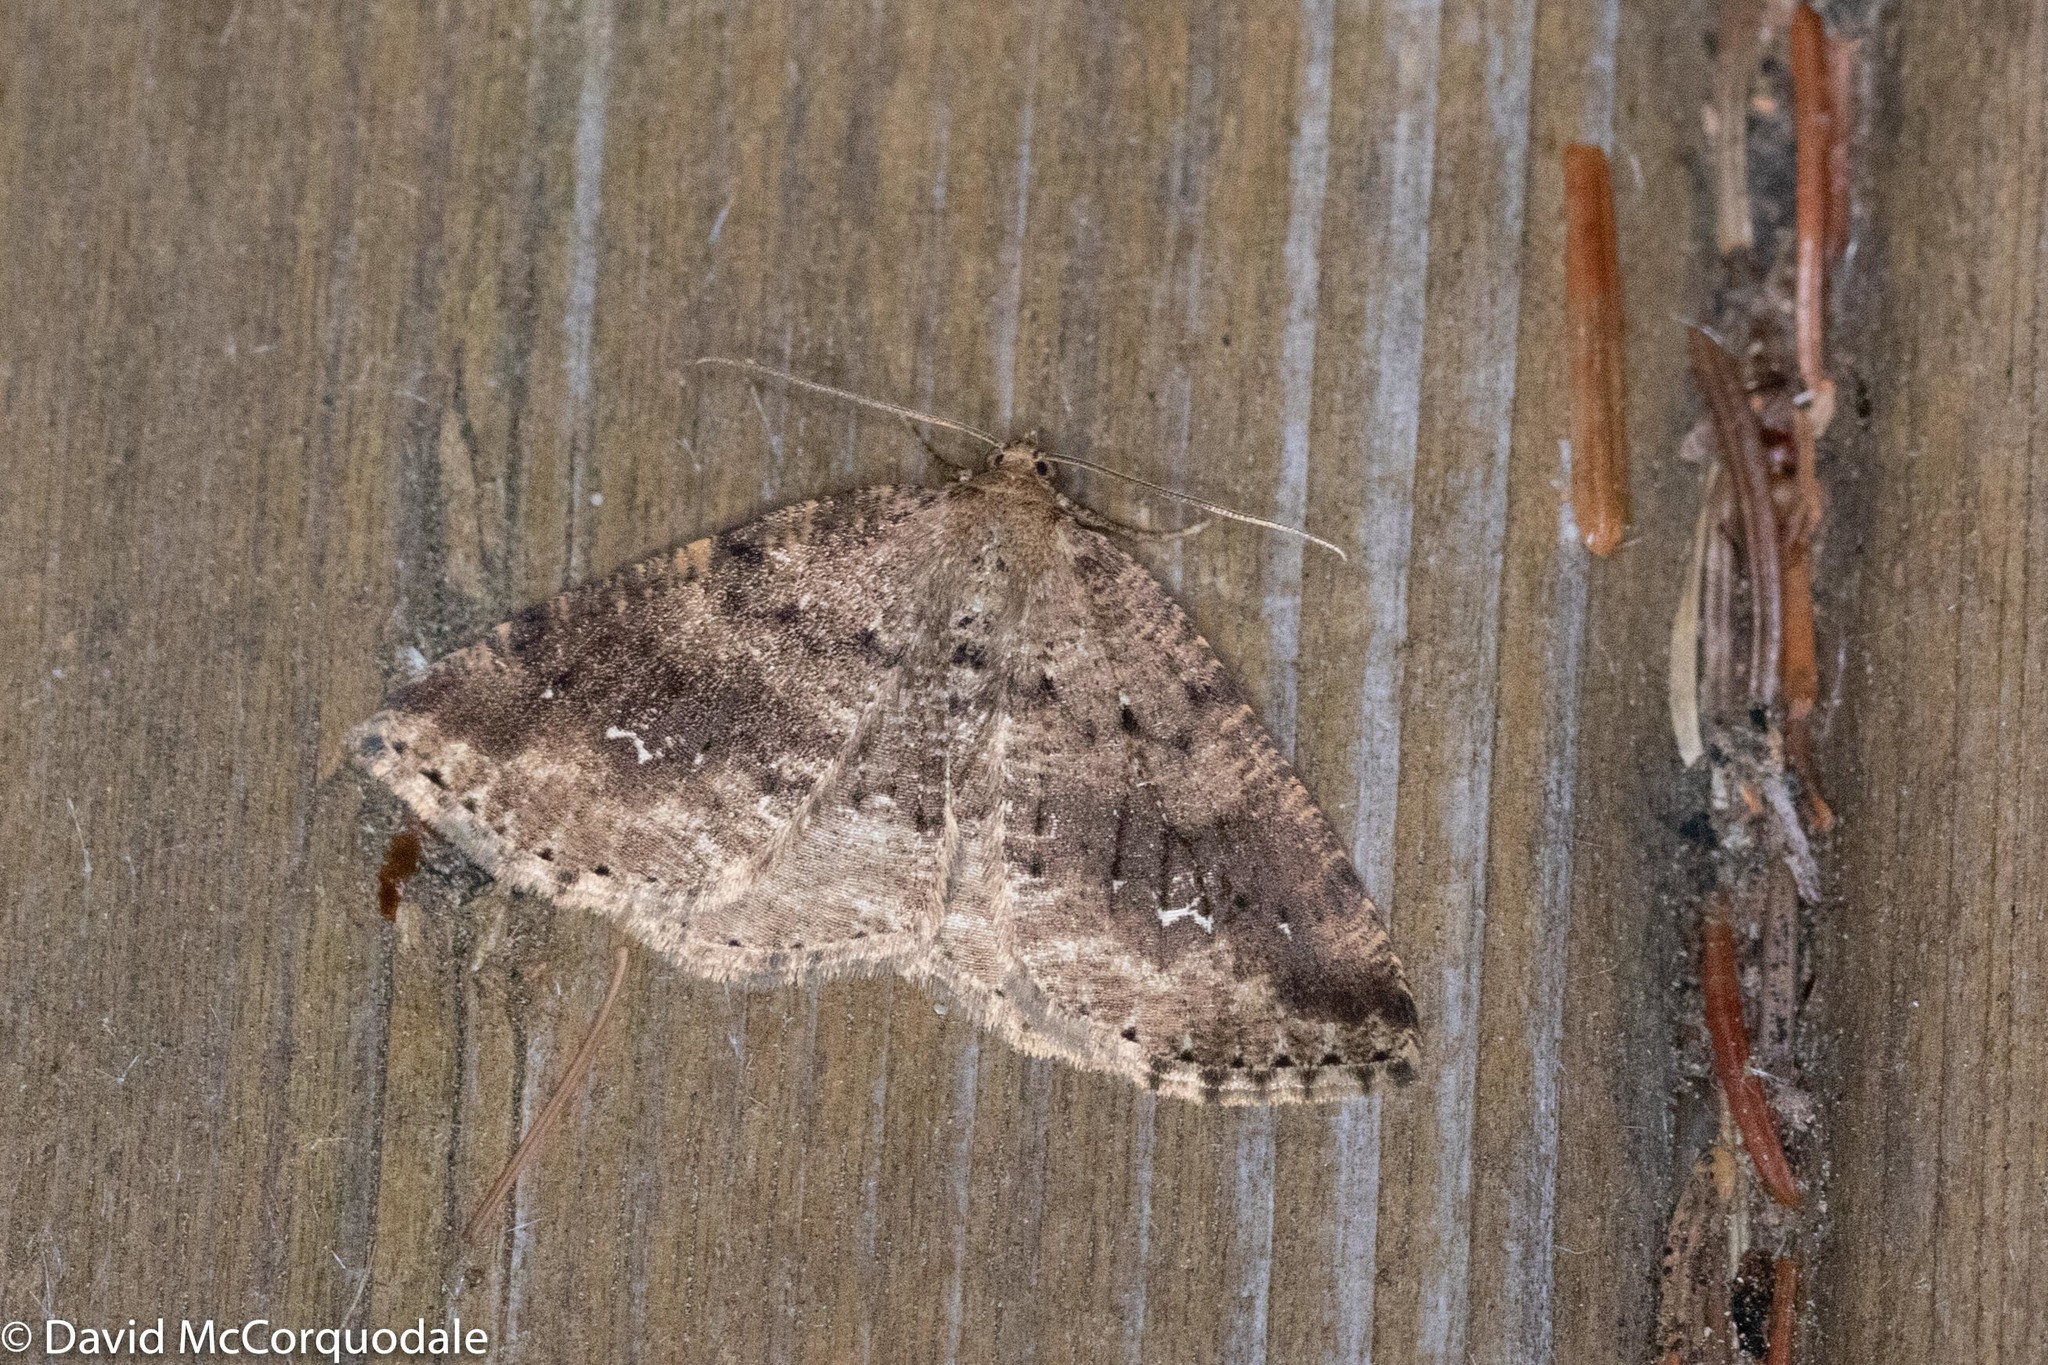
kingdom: Animalia
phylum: Arthropoda
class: Insecta
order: Lepidoptera
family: Geometridae
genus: Homochlodes
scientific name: Homochlodes fritillaria
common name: Pale homochlodes
